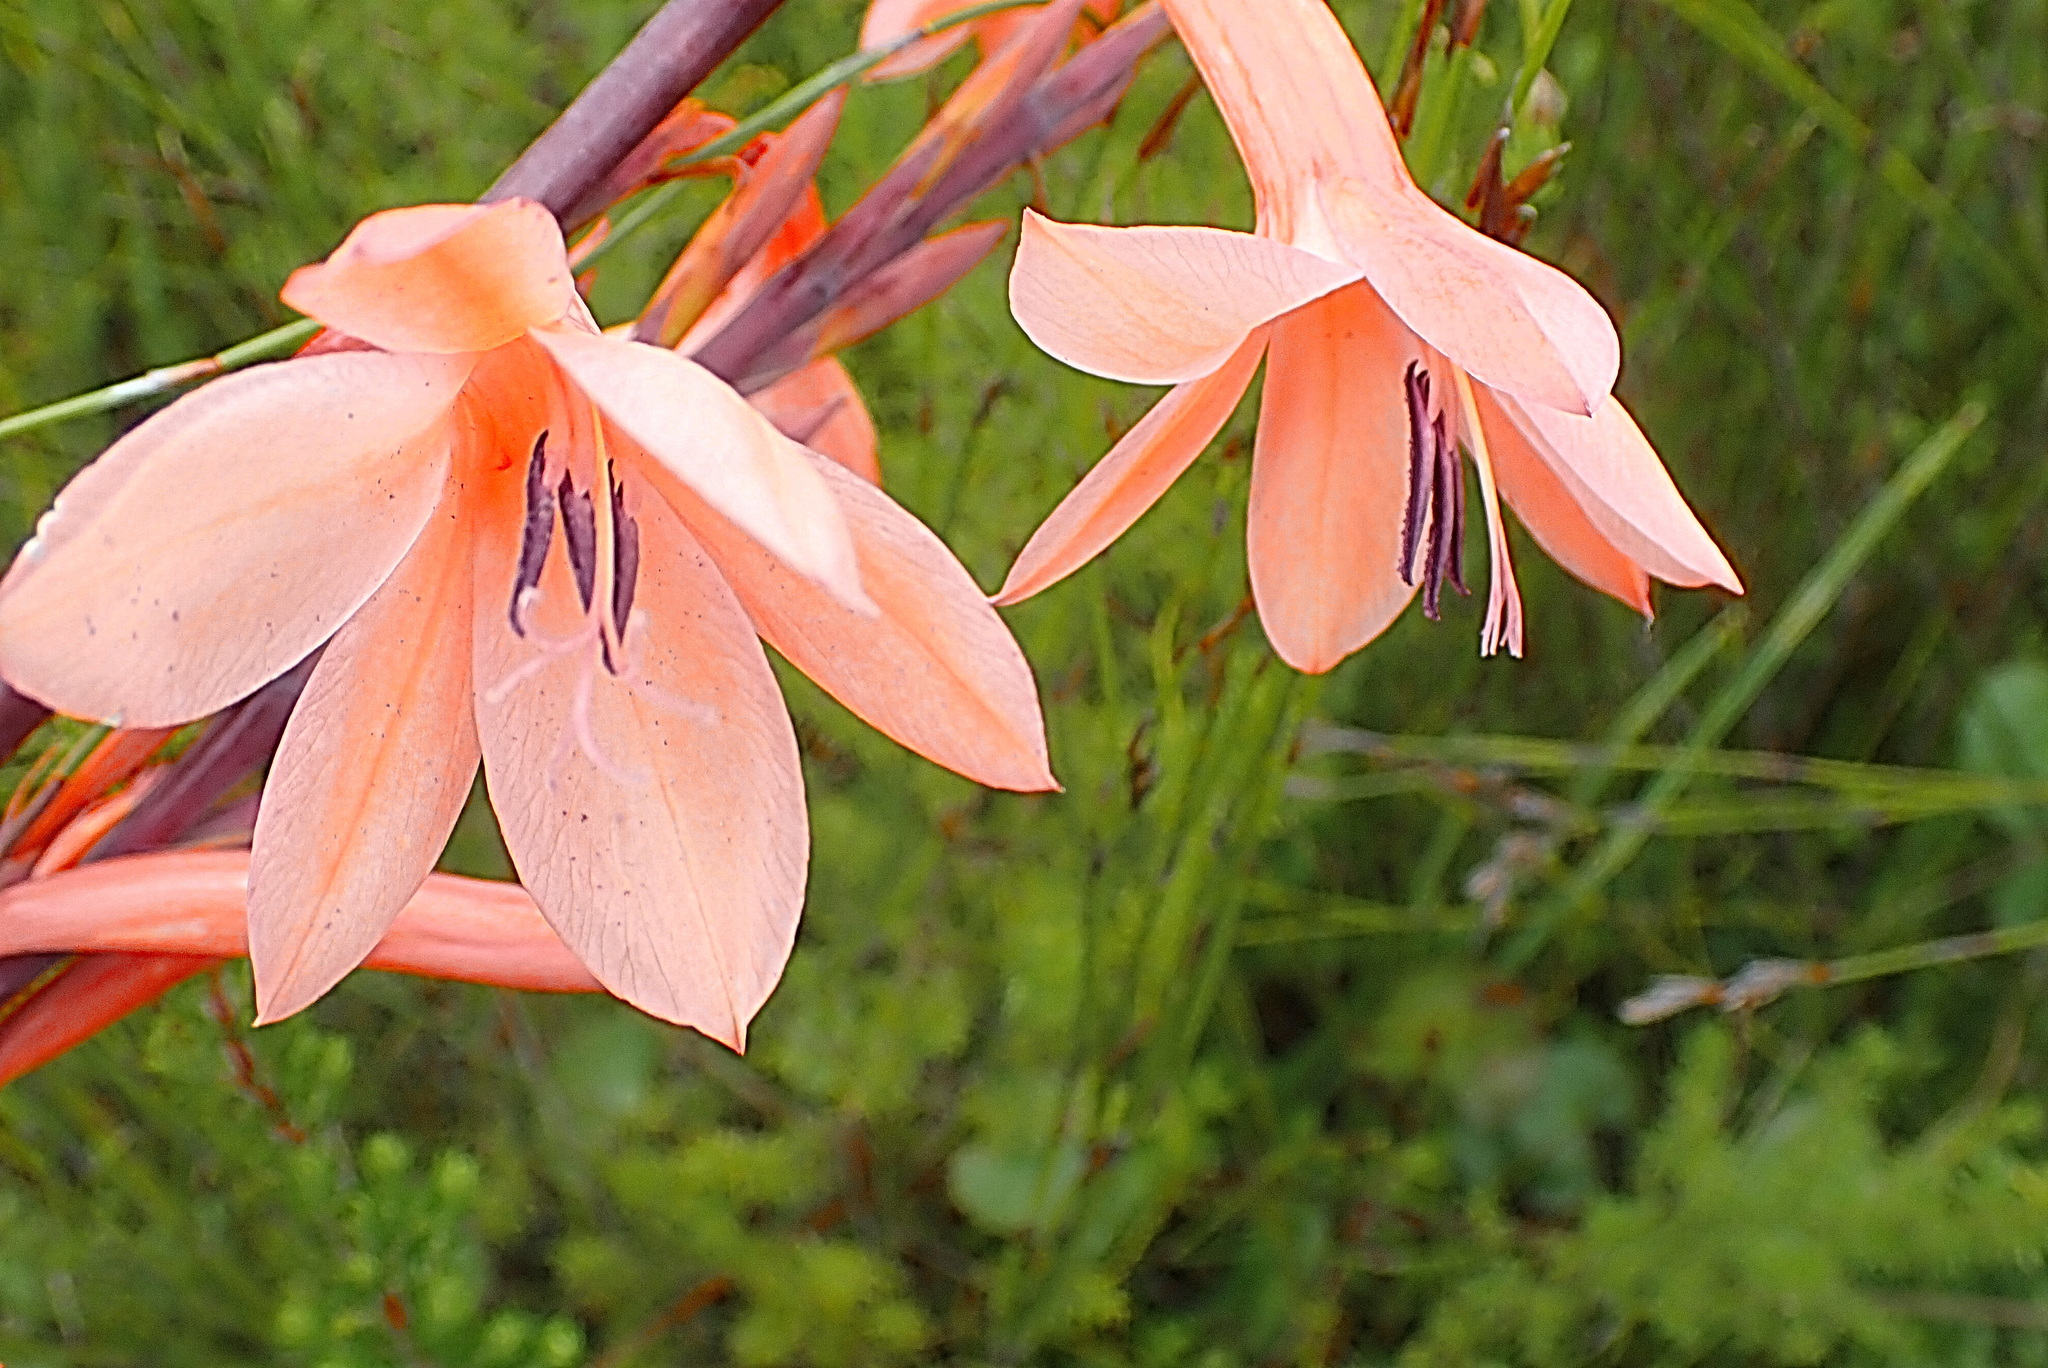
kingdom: Plantae
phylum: Tracheophyta
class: Liliopsida
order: Asparagales
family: Iridaceae
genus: Watsonia
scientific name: Watsonia fourcadei
